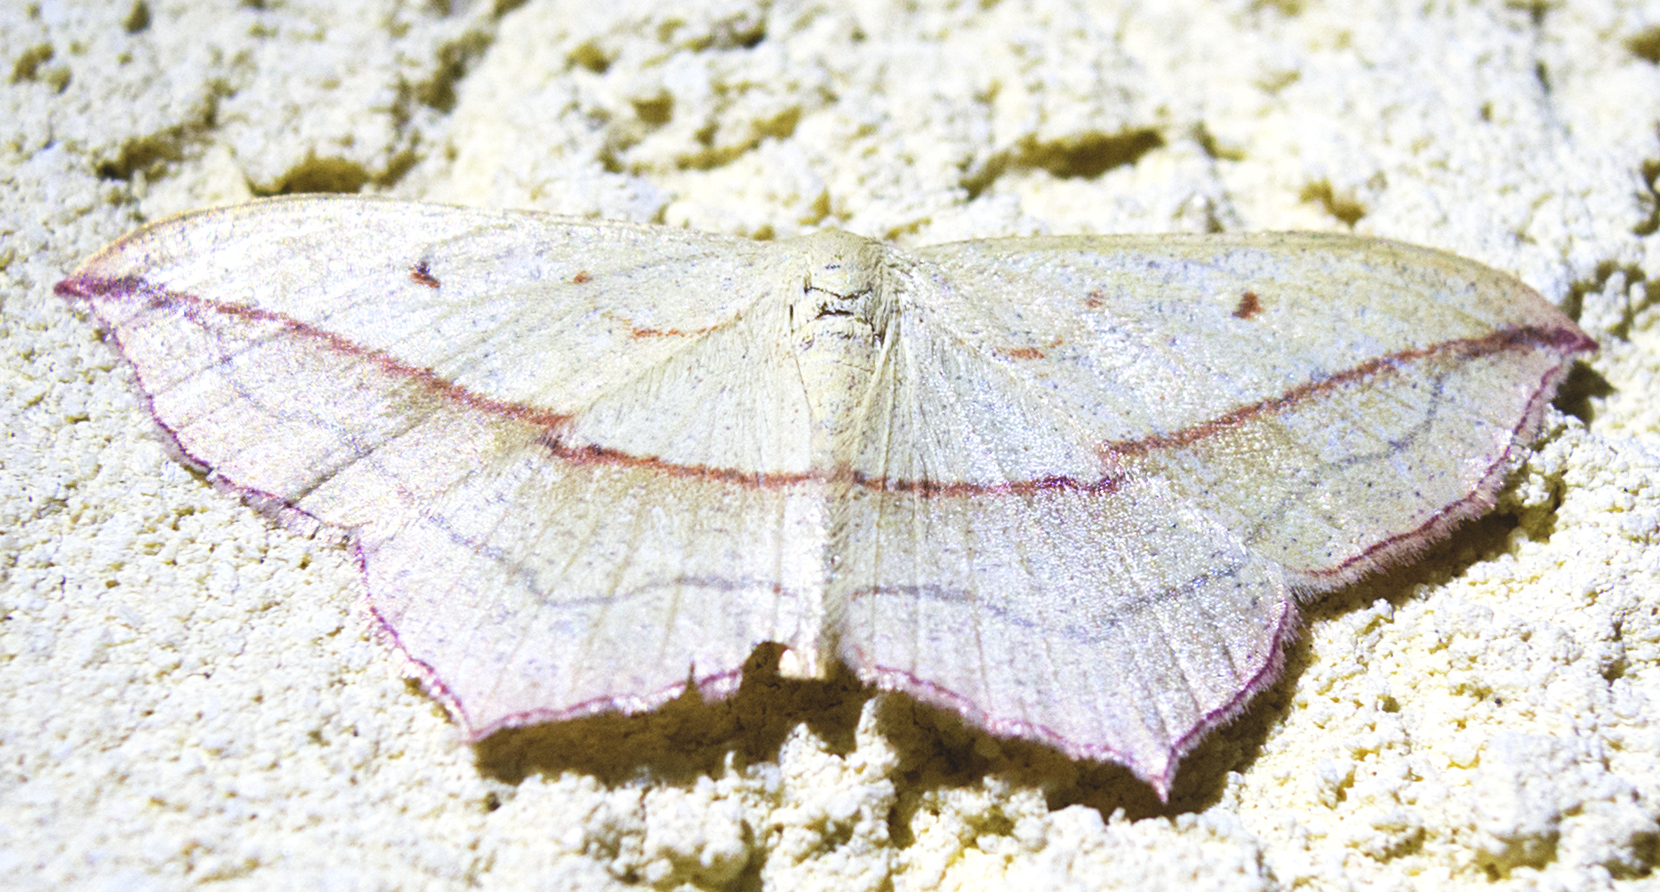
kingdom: Animalia
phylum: Arthropoda
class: Insecta
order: Lepidoptera
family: Geometridae
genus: Timandra
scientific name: Timandra comae
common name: Blood-vein
